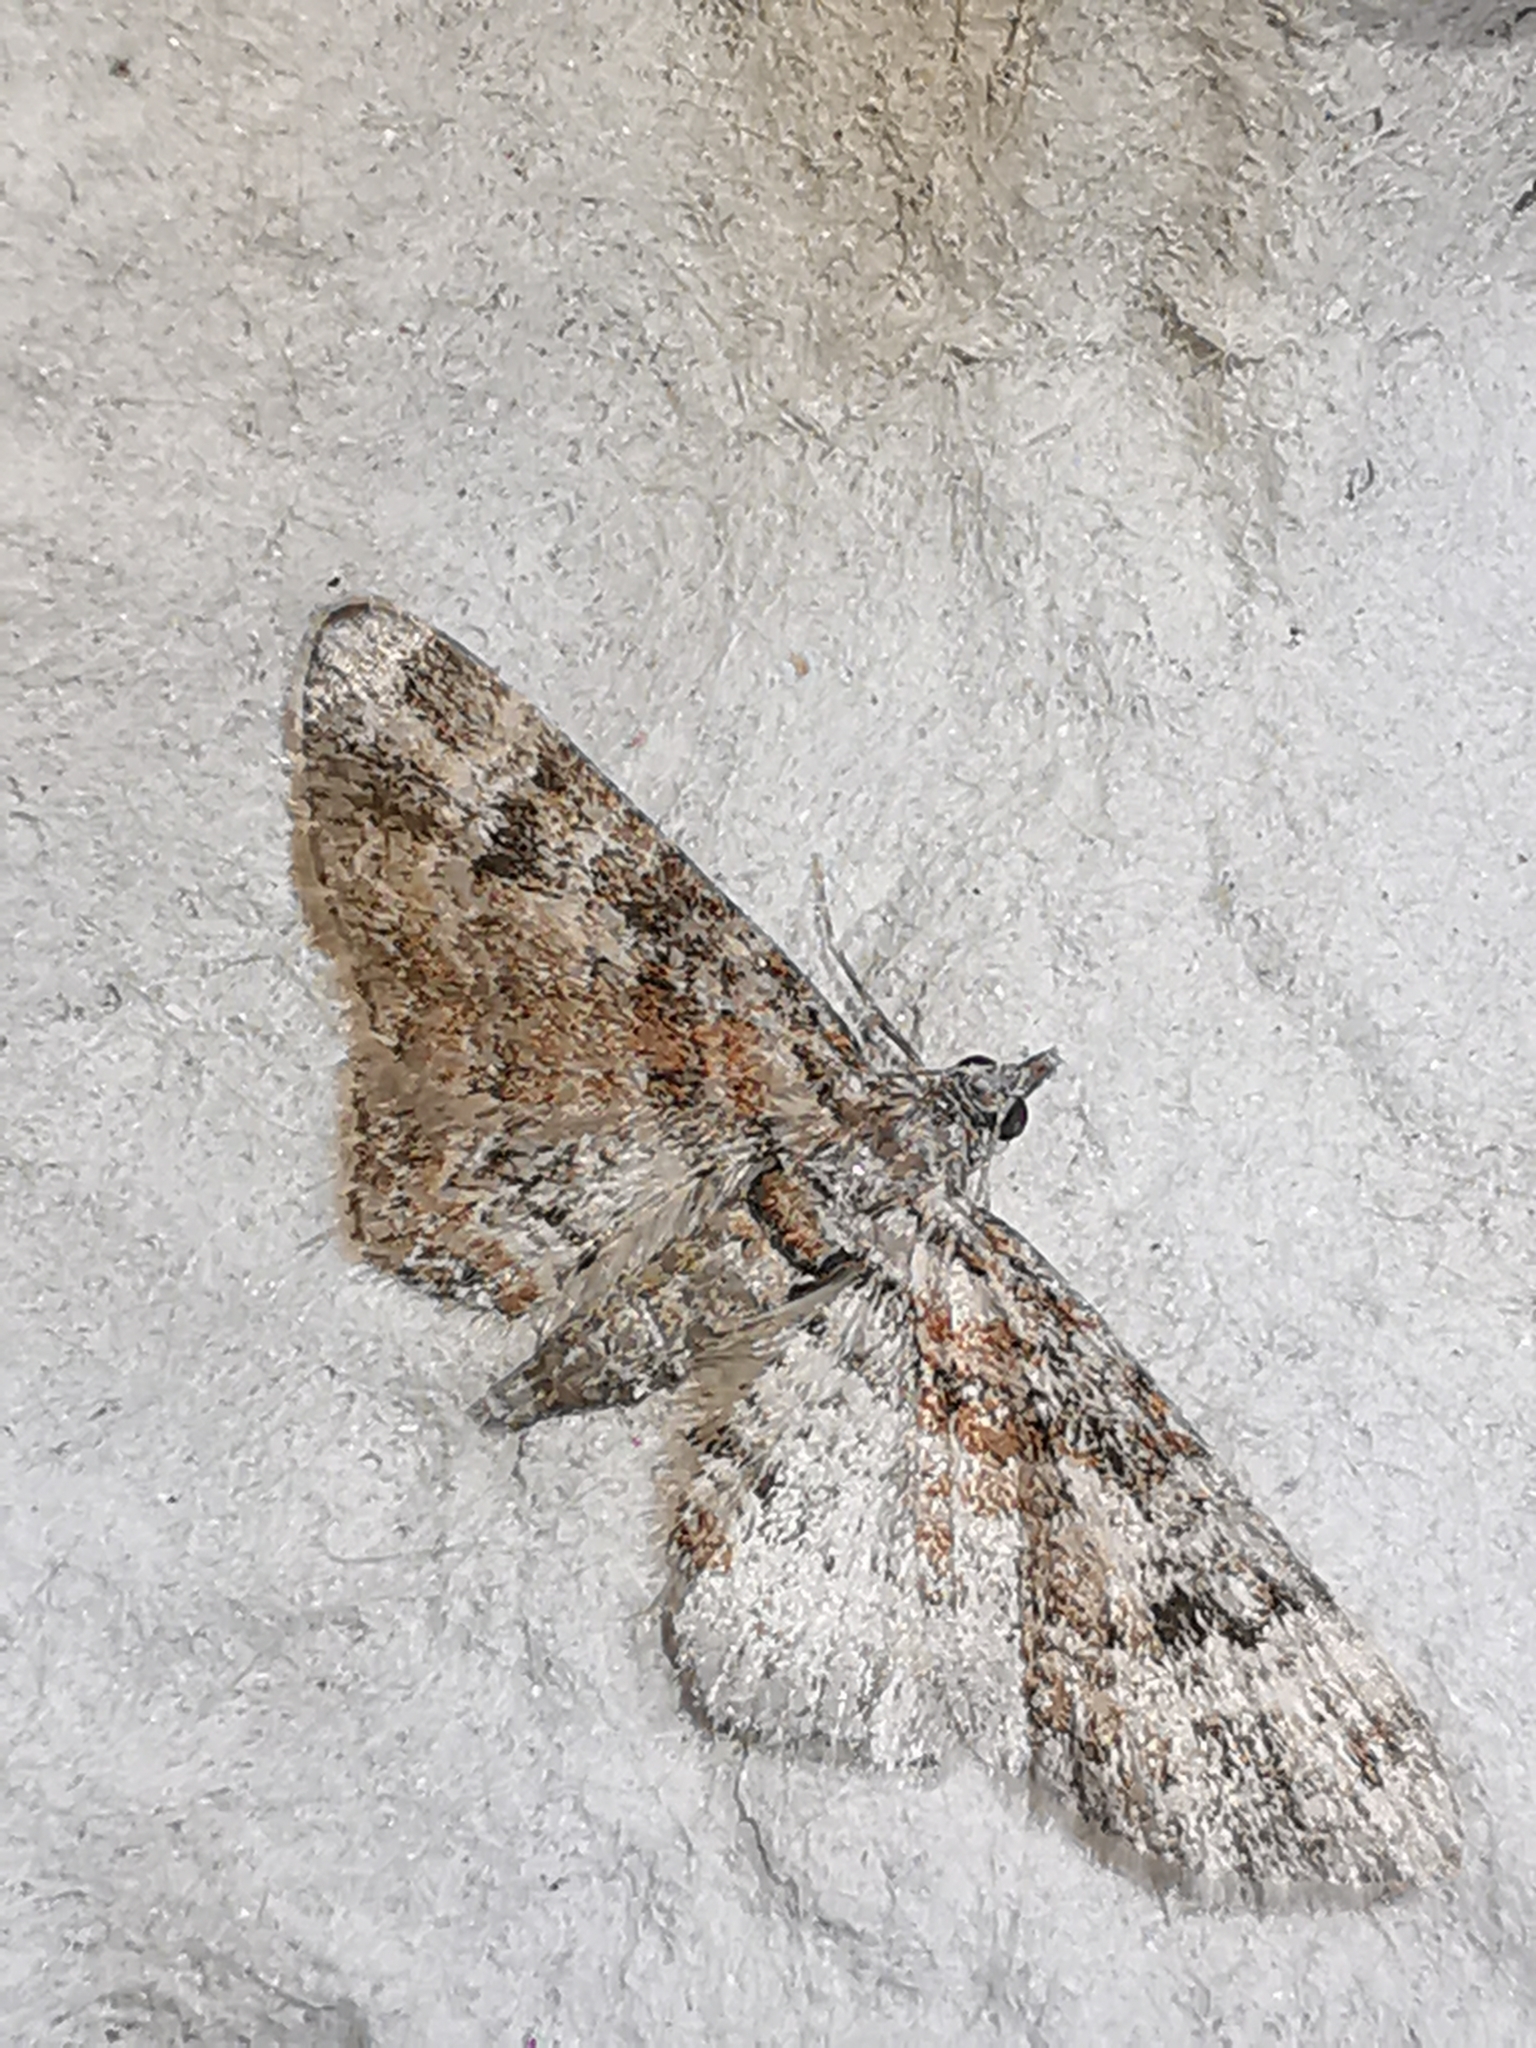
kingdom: Animalia
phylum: Arthropoda
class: Insecta
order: Lepidoptera
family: Geometridae
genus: Gymnoscelis
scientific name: Gymnoscelis rufifasciata
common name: Double-striped pug
